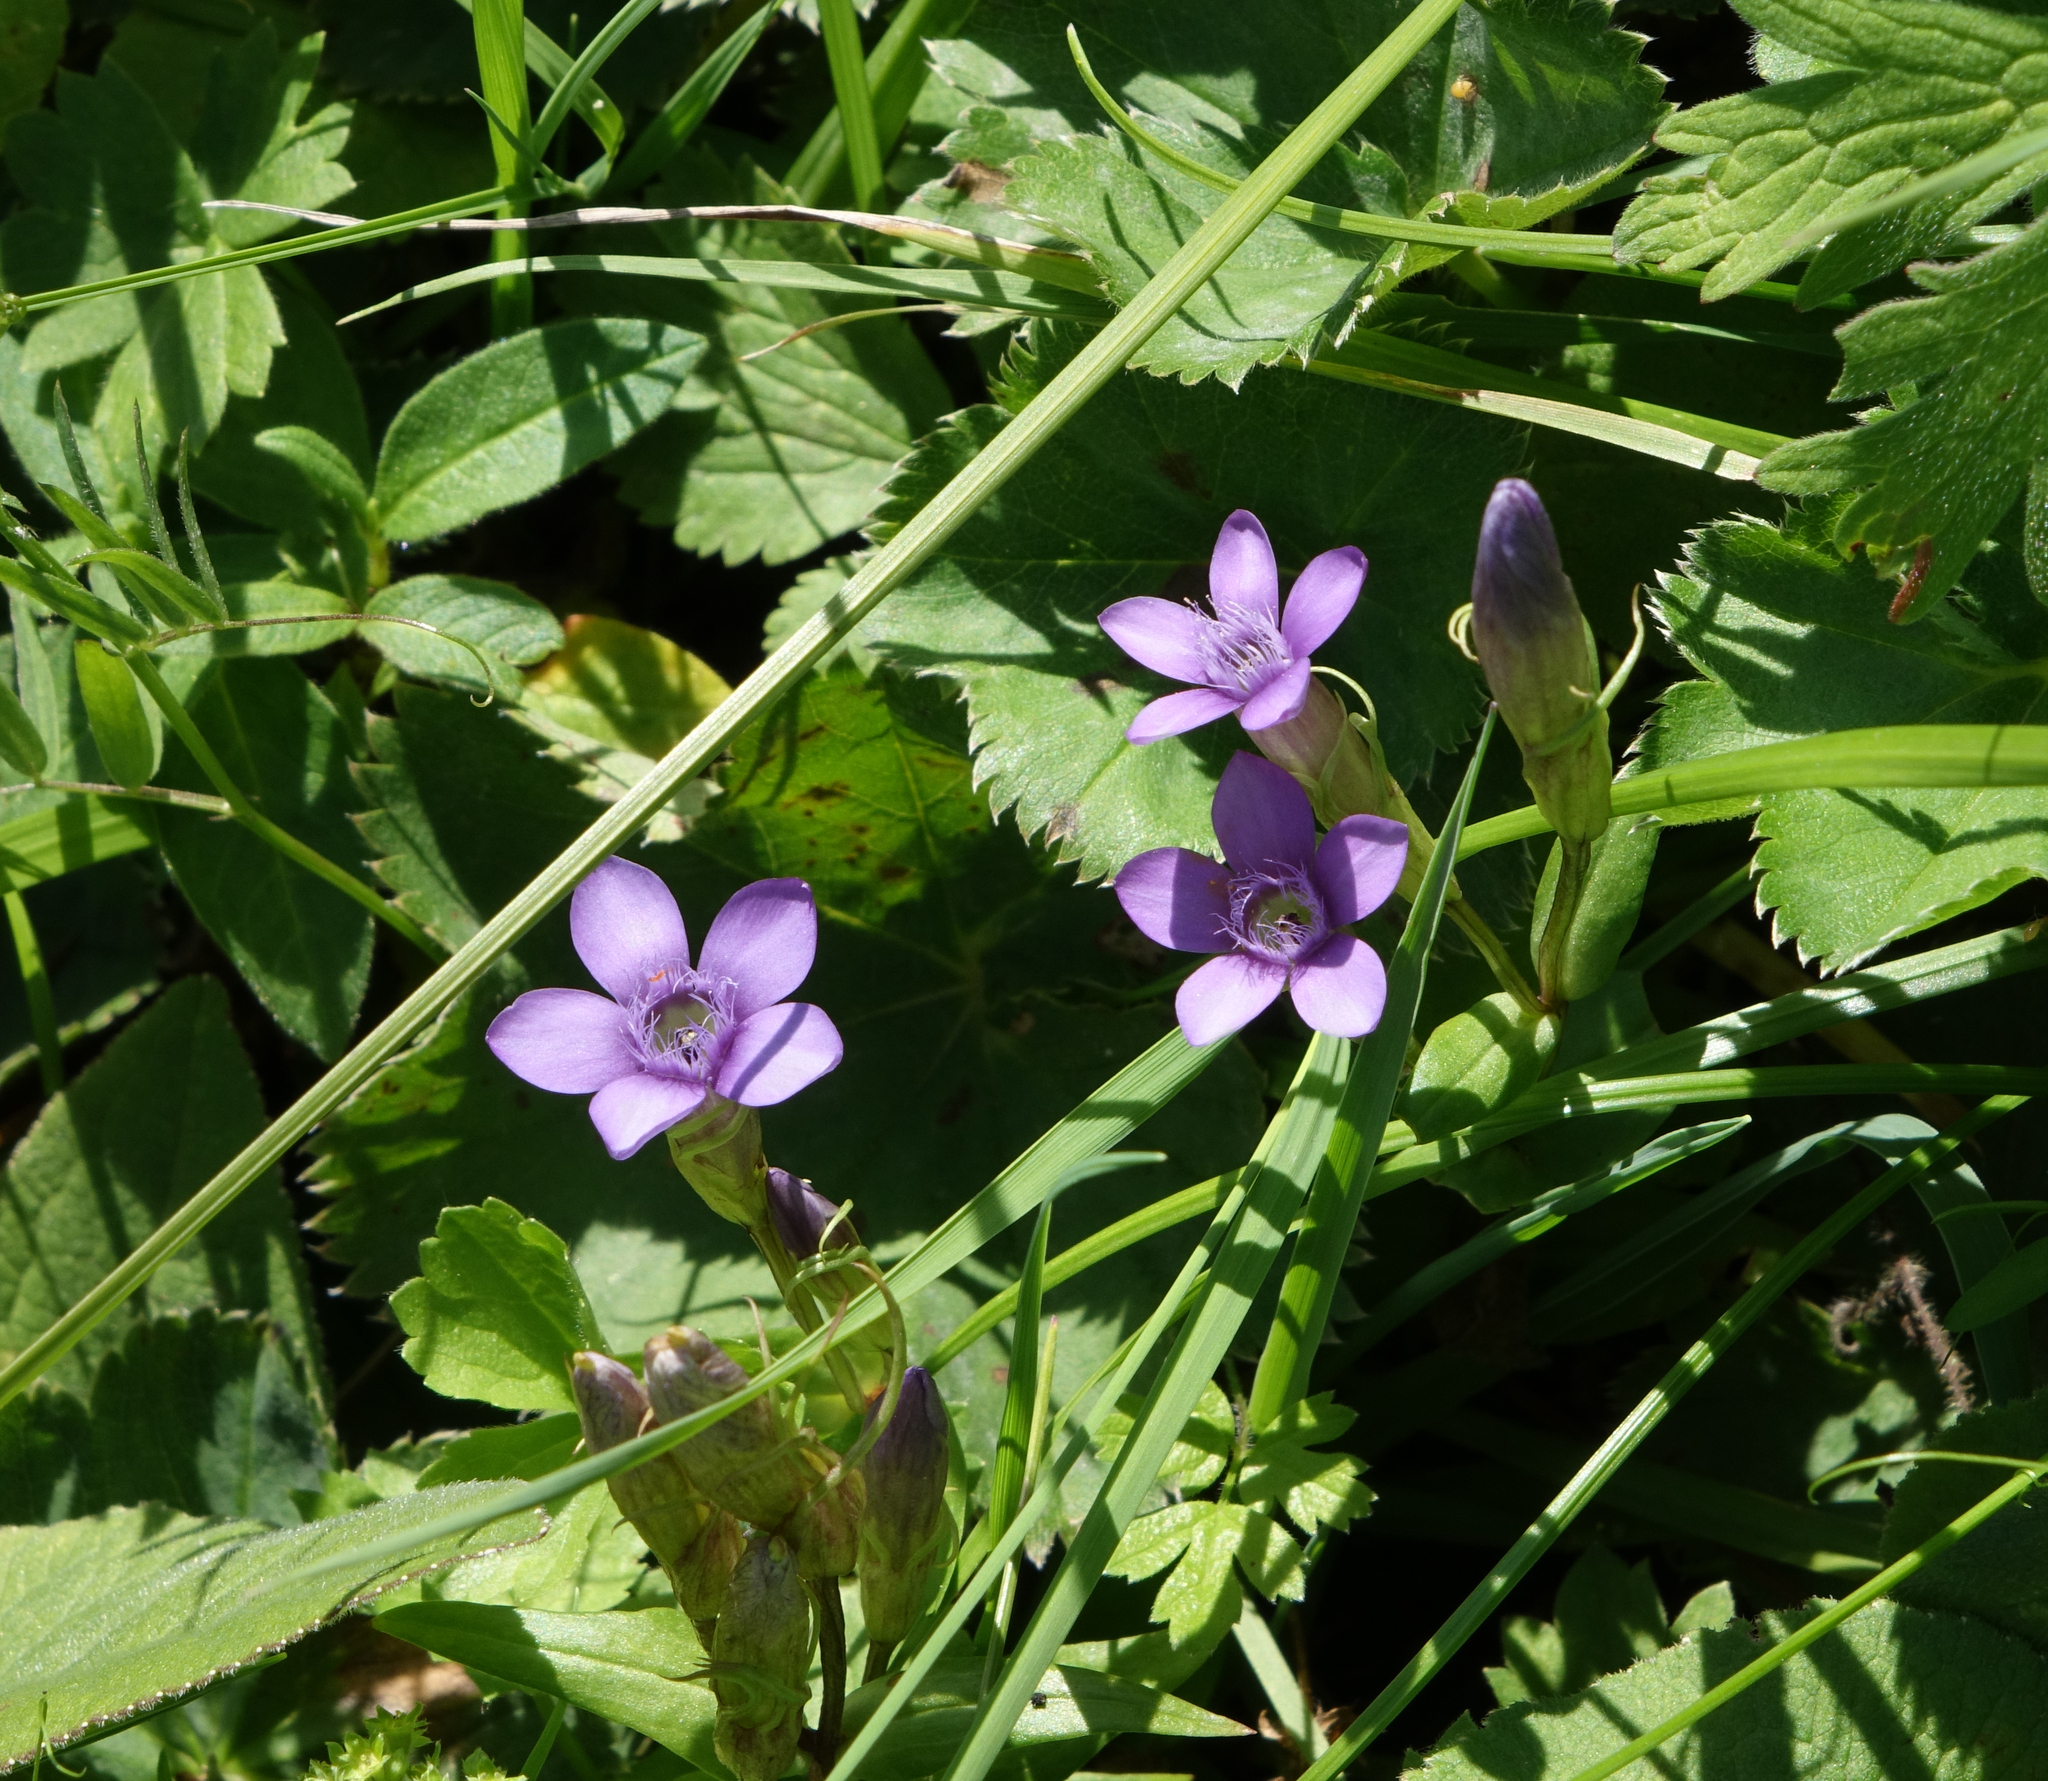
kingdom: Plantae
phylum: Tracheophyta
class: Magnoliopsida
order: Gentianales
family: Gentianaceae
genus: Gentianella
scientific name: Gentianella caucasea
